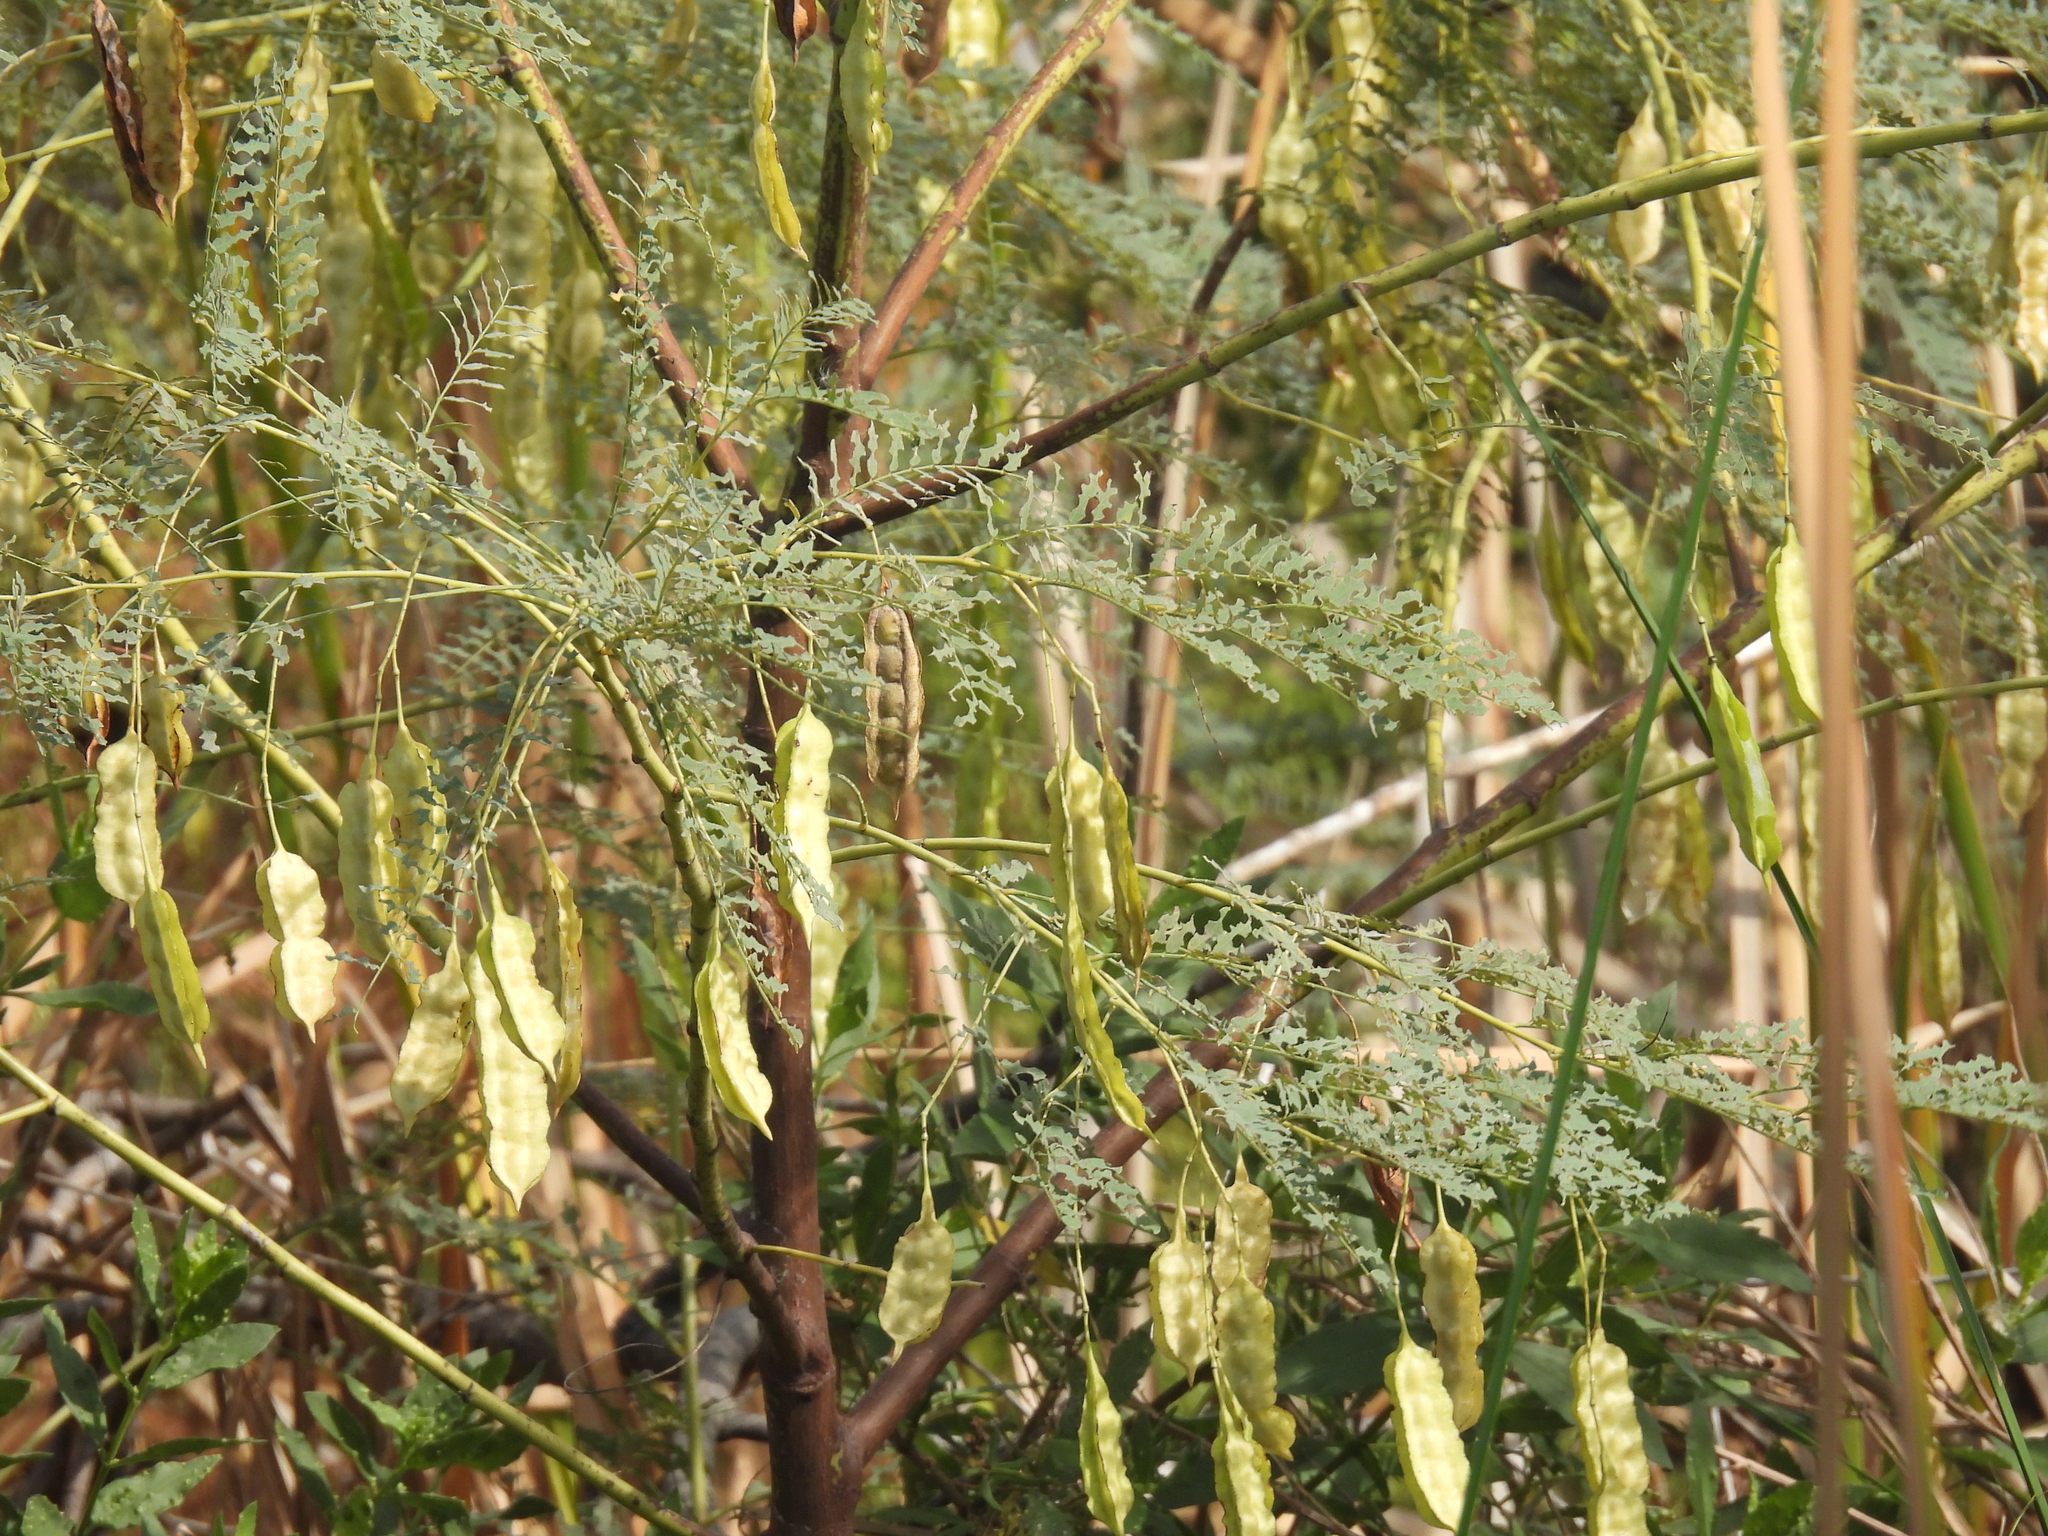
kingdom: Plantae
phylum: Tracheophyta
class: Magnoliopsida
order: Fabales
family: Fabaceae
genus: Sesbania
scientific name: Sesbania drummondii
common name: Poison-bean
